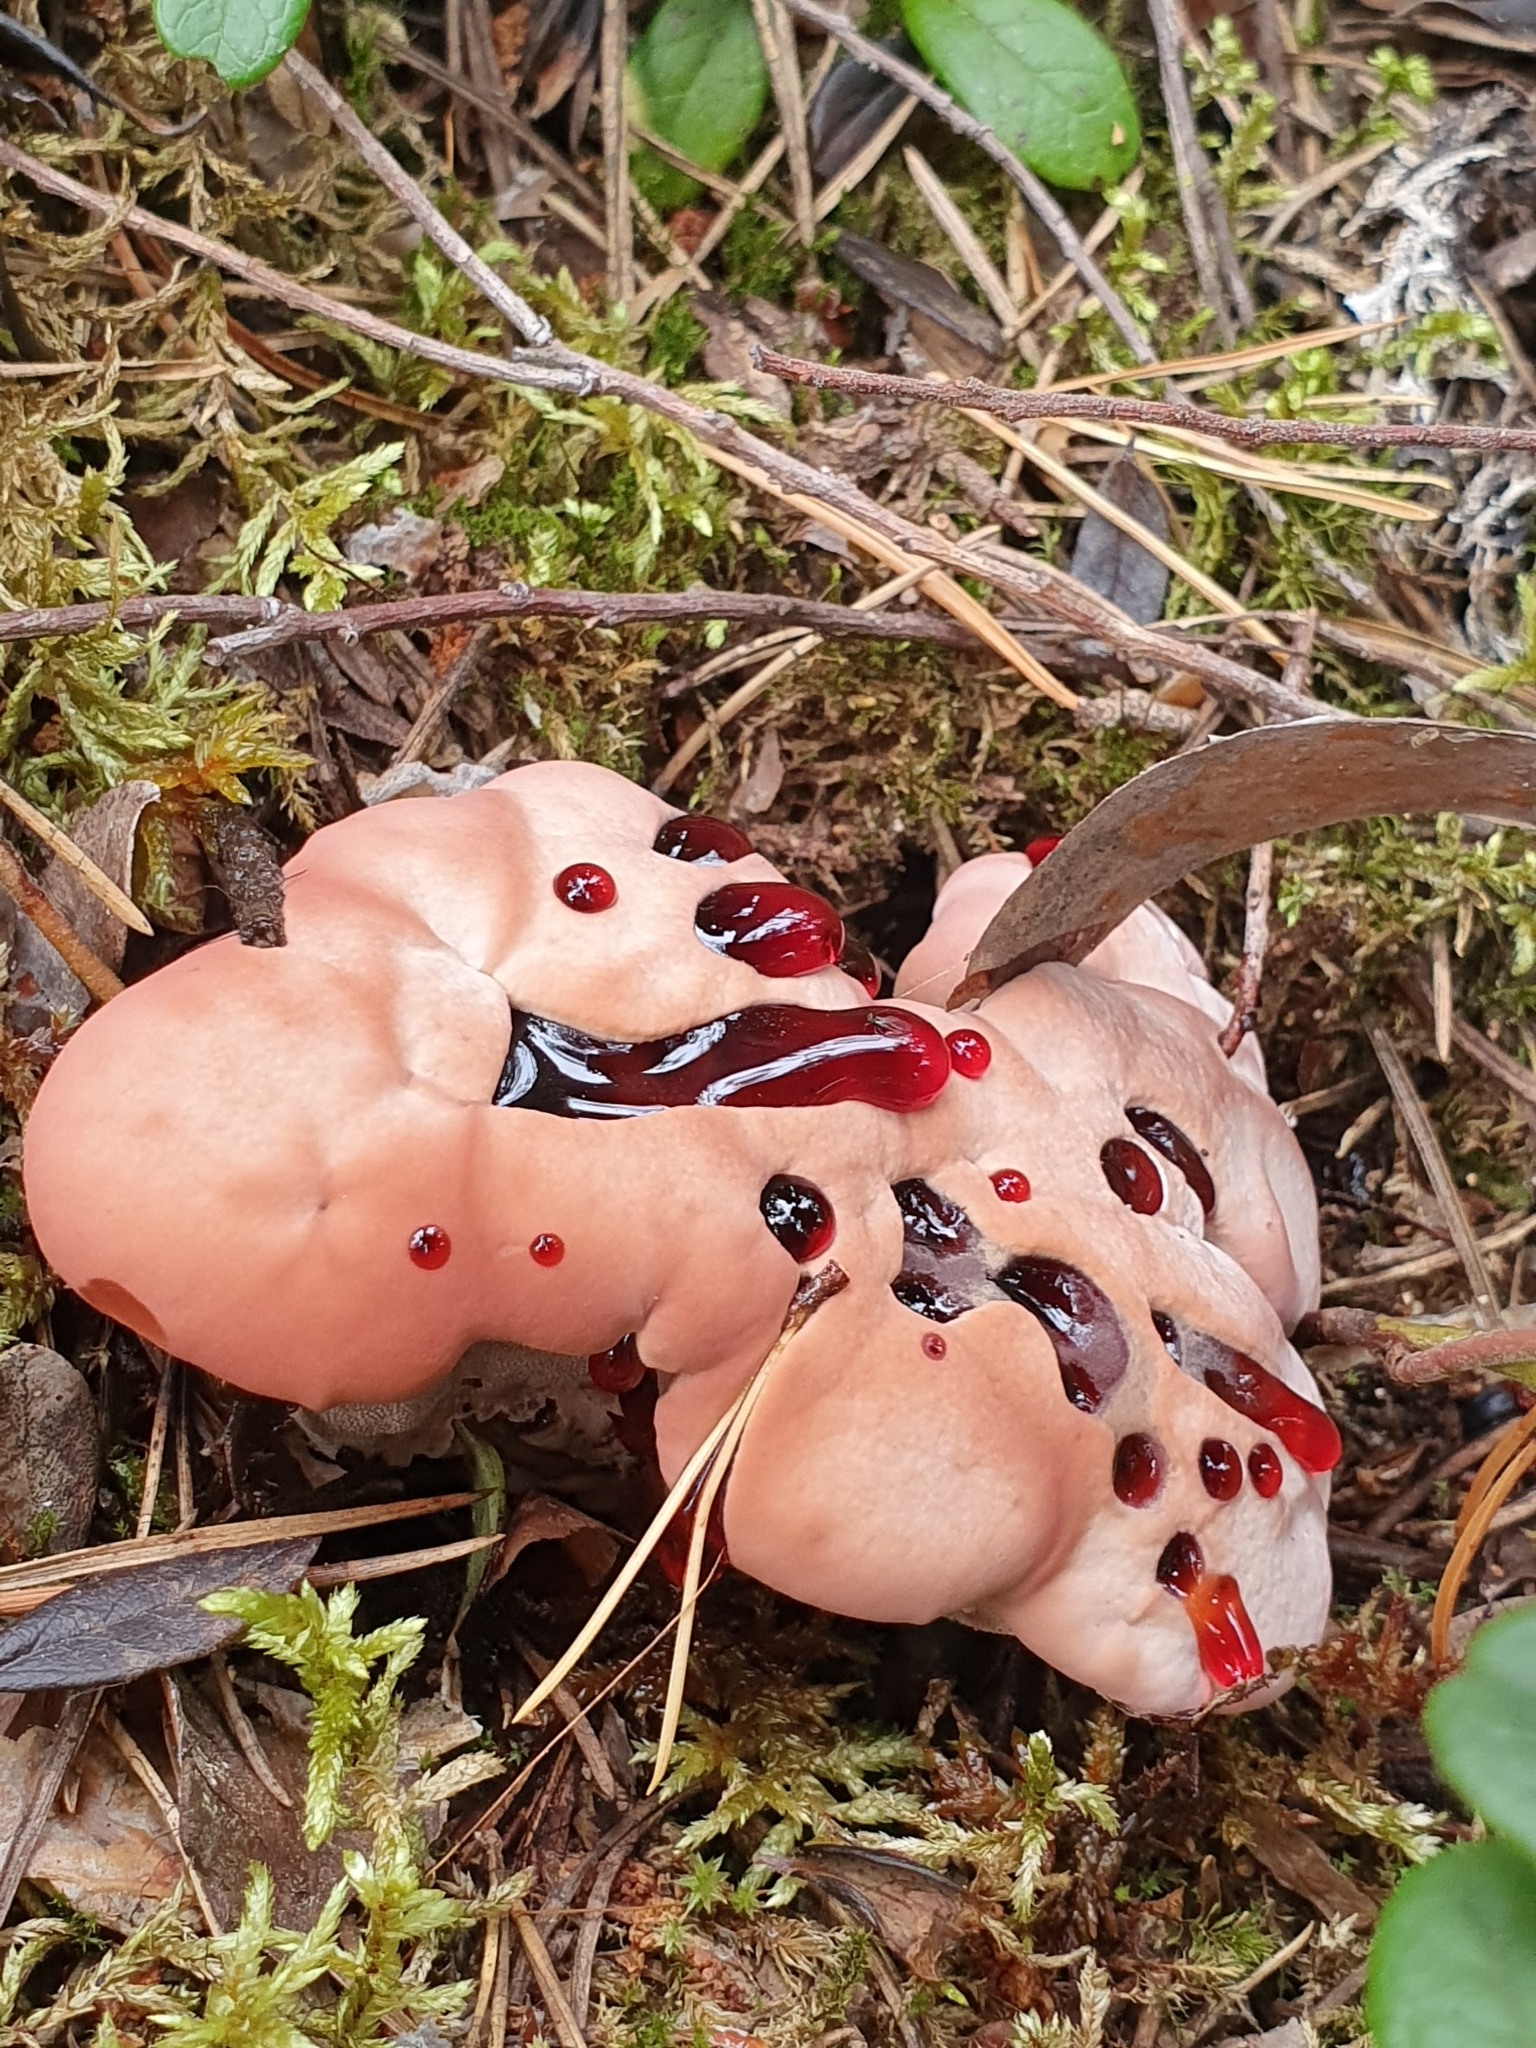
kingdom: Fungi
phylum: Basidiomycota
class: Agaricomycetes
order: Thelephorales
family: Bankeraceae
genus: Hydnellum
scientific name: Hydnellum peckii
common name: Devil's tooth
